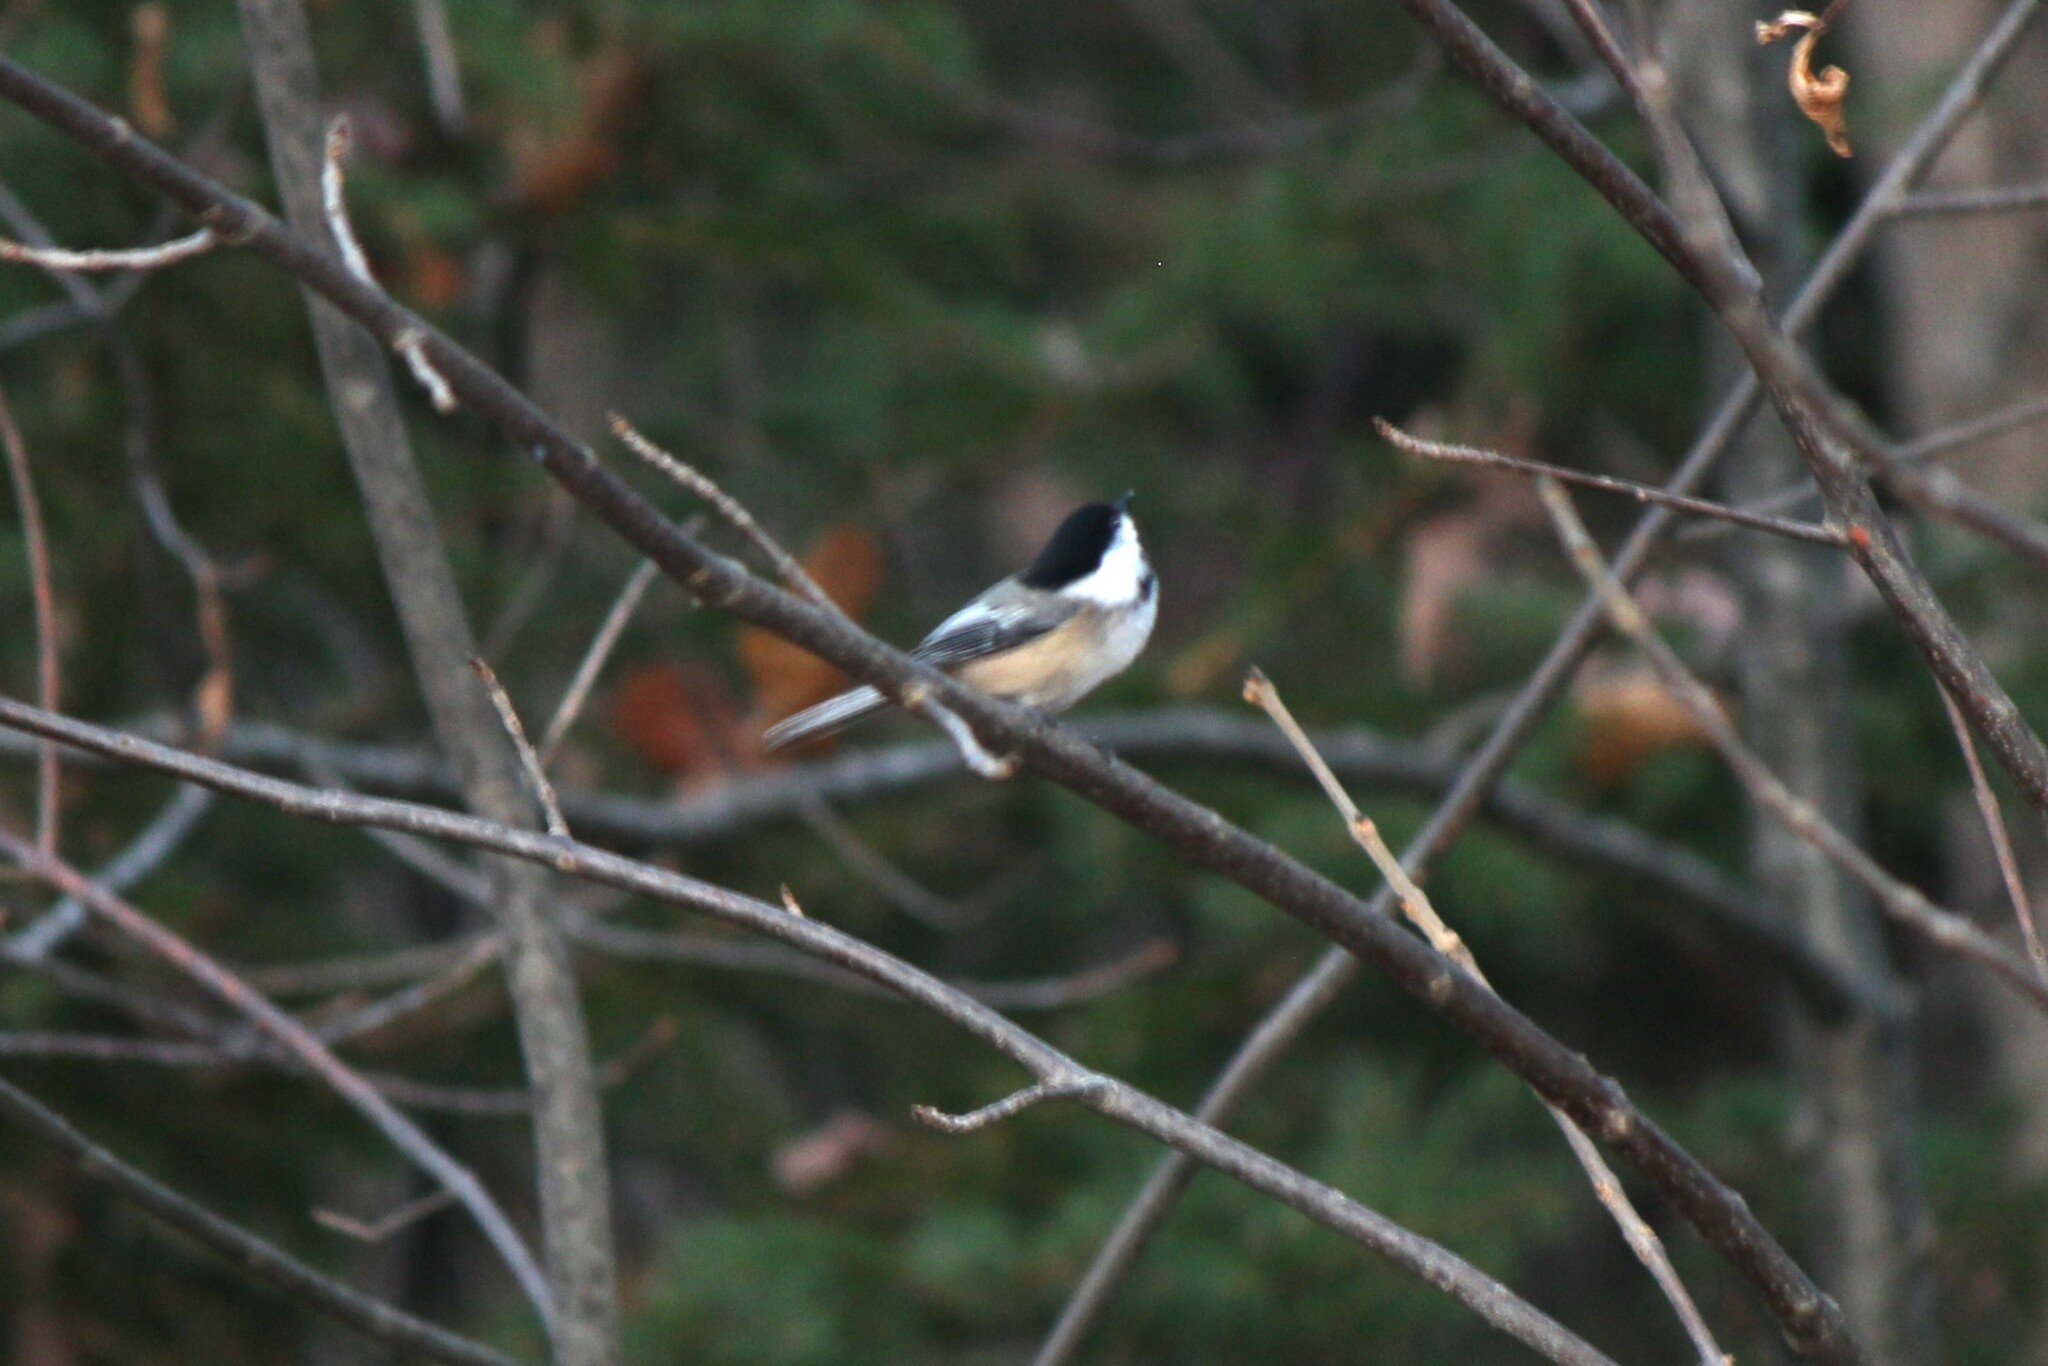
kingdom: Animalia
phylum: Chordata
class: Aves
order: Passeriformes
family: Paridae
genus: Poecile
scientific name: Poecile atricapillus
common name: Black-capped chickadee
